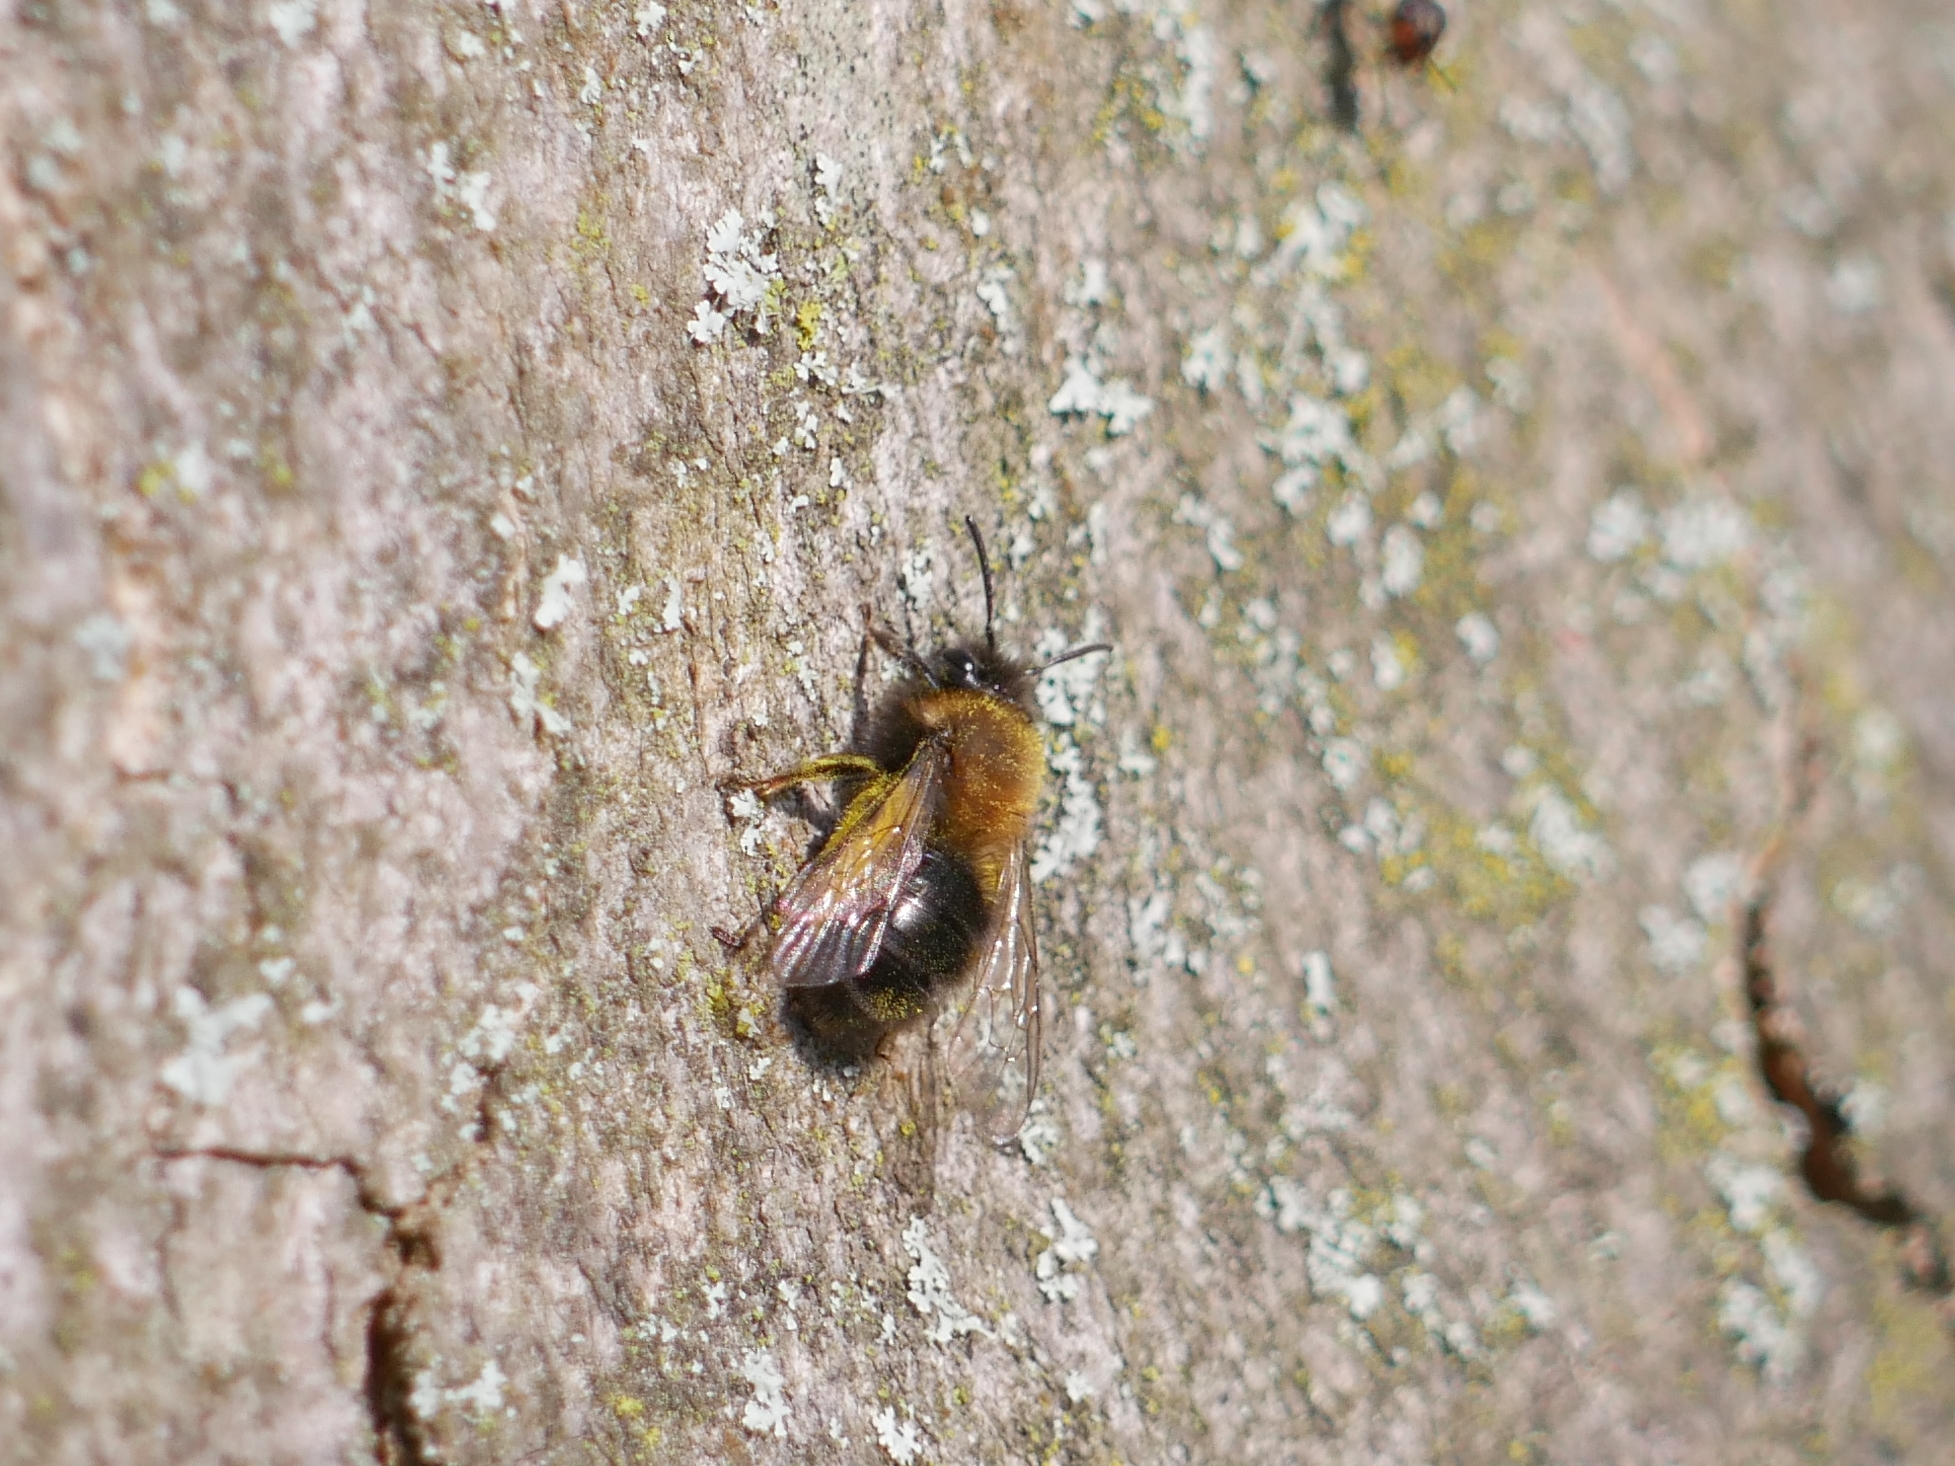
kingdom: Animalia
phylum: Arthropoda
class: Insecta
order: Hymenoptera
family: Andrenidae
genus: Andrena
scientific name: Andrena clarkella
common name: Clarke's mining bee
